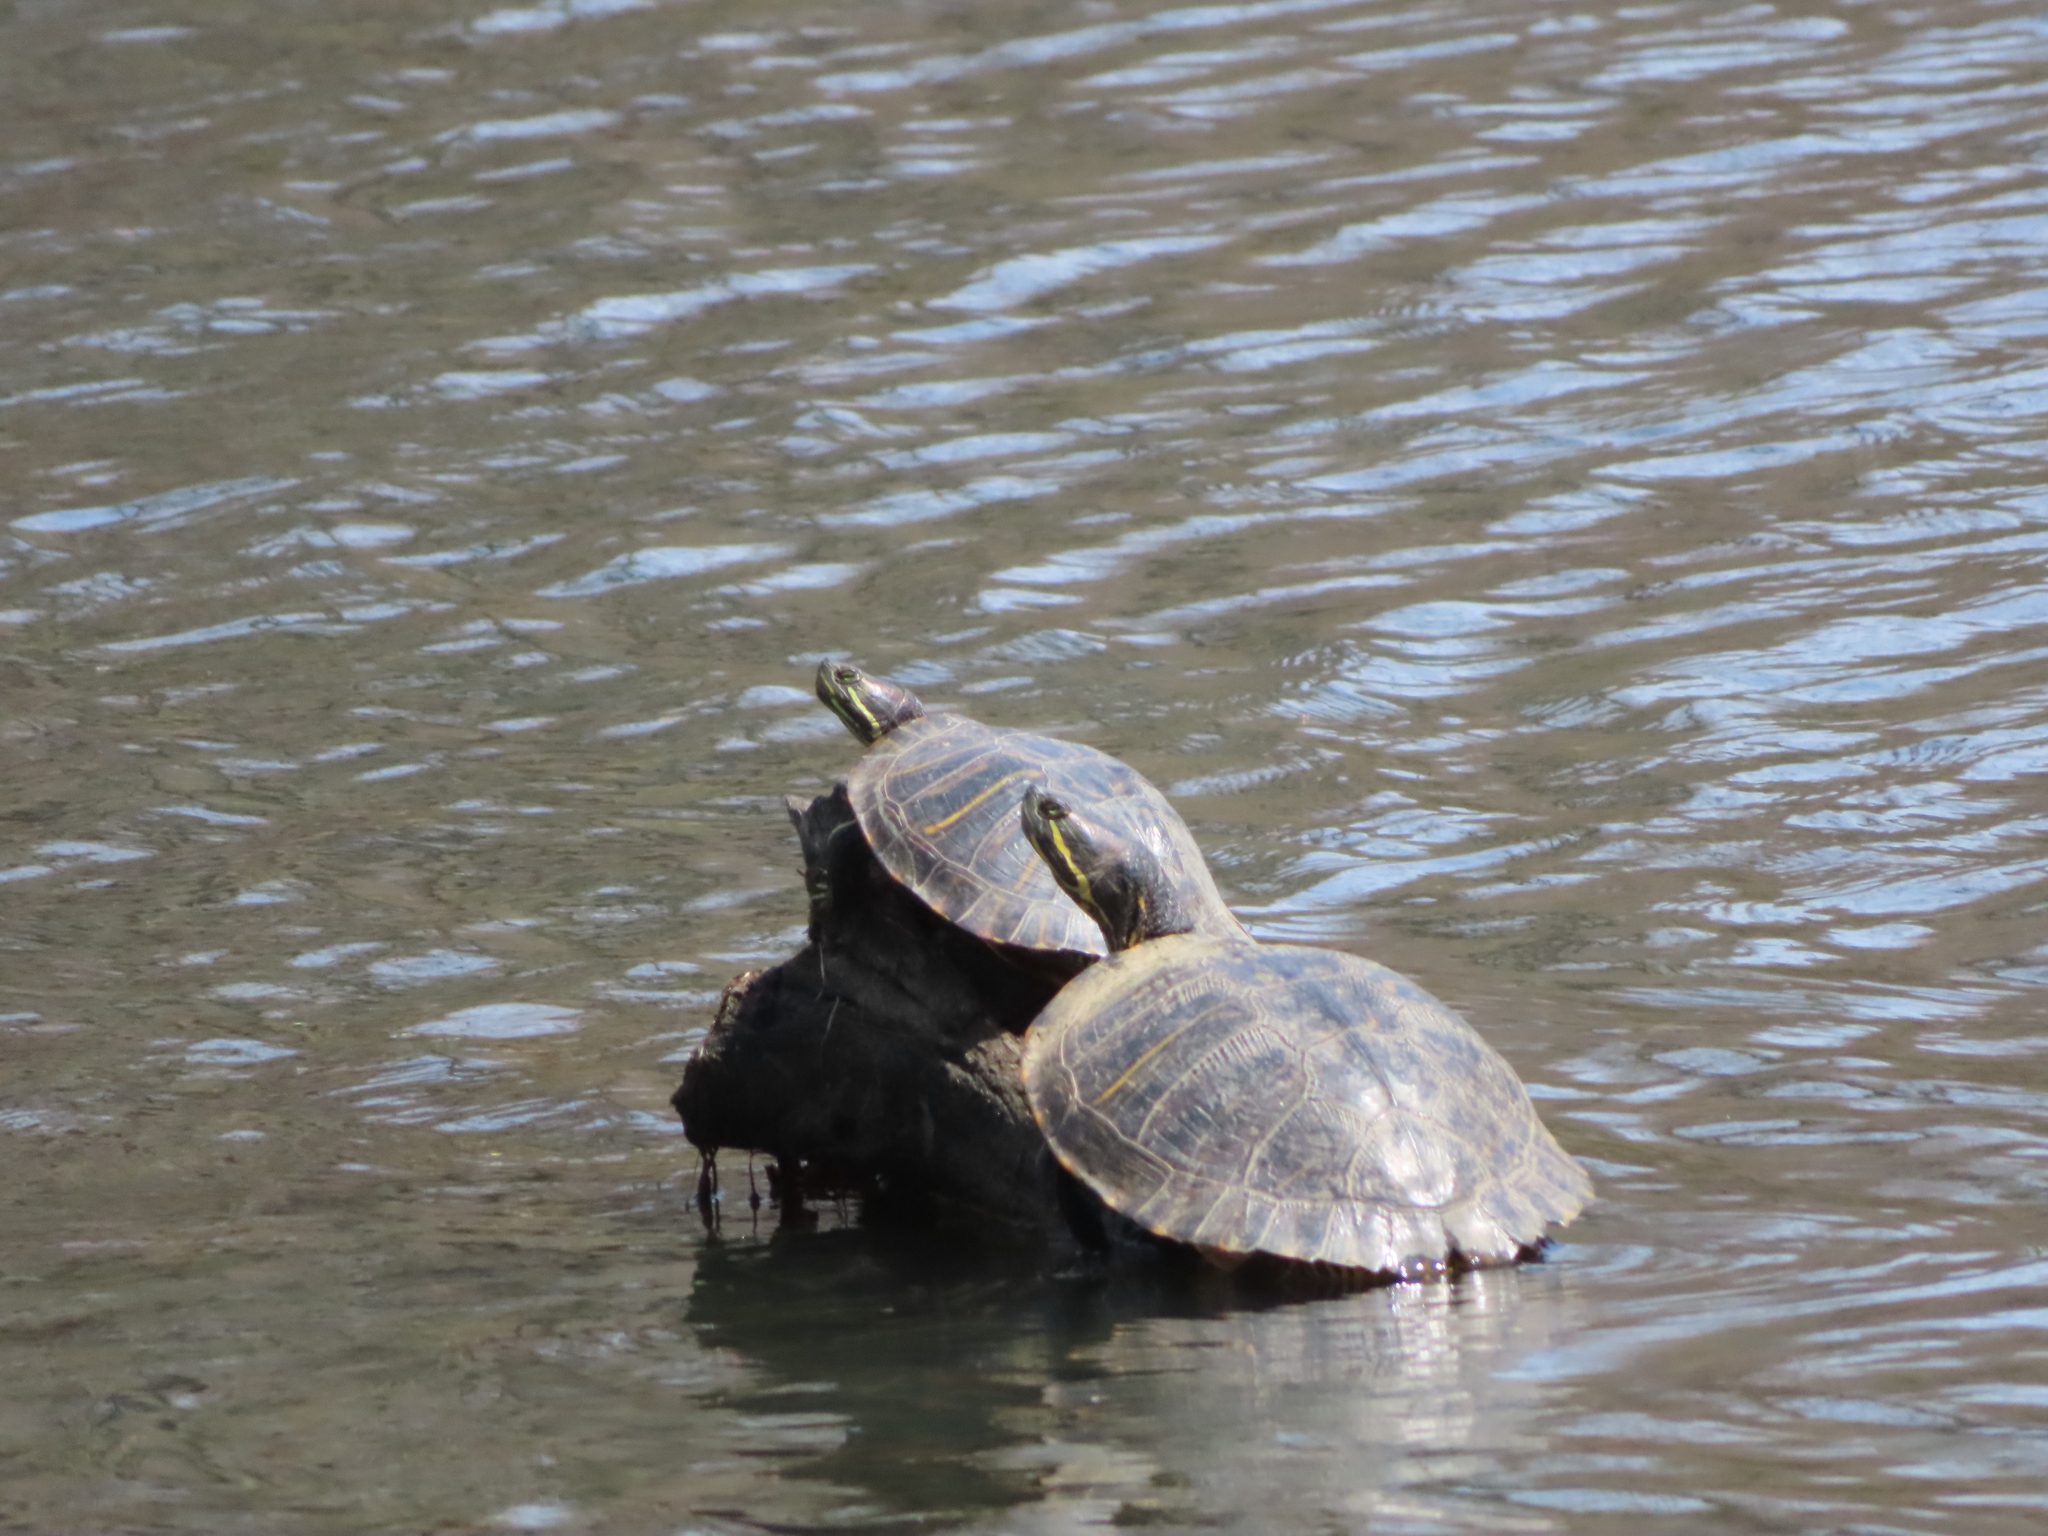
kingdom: Animalia
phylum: Chordata
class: Testudines
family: Emydidae
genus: Trachemys
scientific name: Trachemys scripta
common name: Slider
